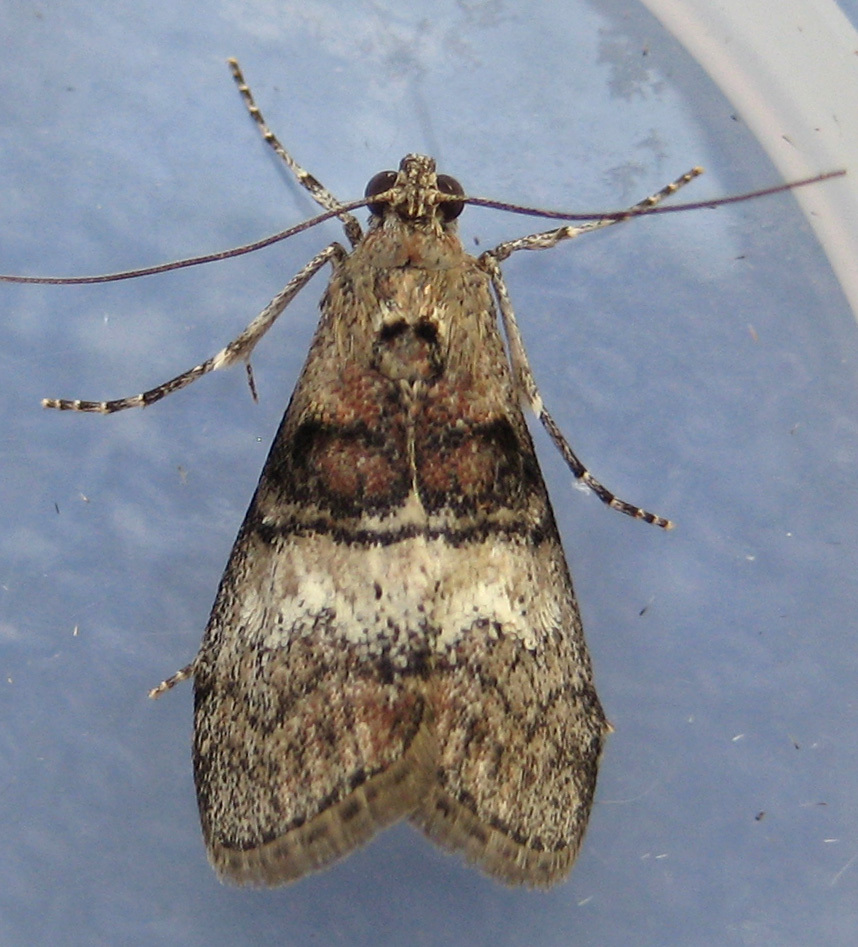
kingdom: Animalia
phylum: Arthropoda
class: Insecta
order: Lepidoptera
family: Pyralidae
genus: Pococera
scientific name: Pococera asperatella
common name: Maple webworm moth
